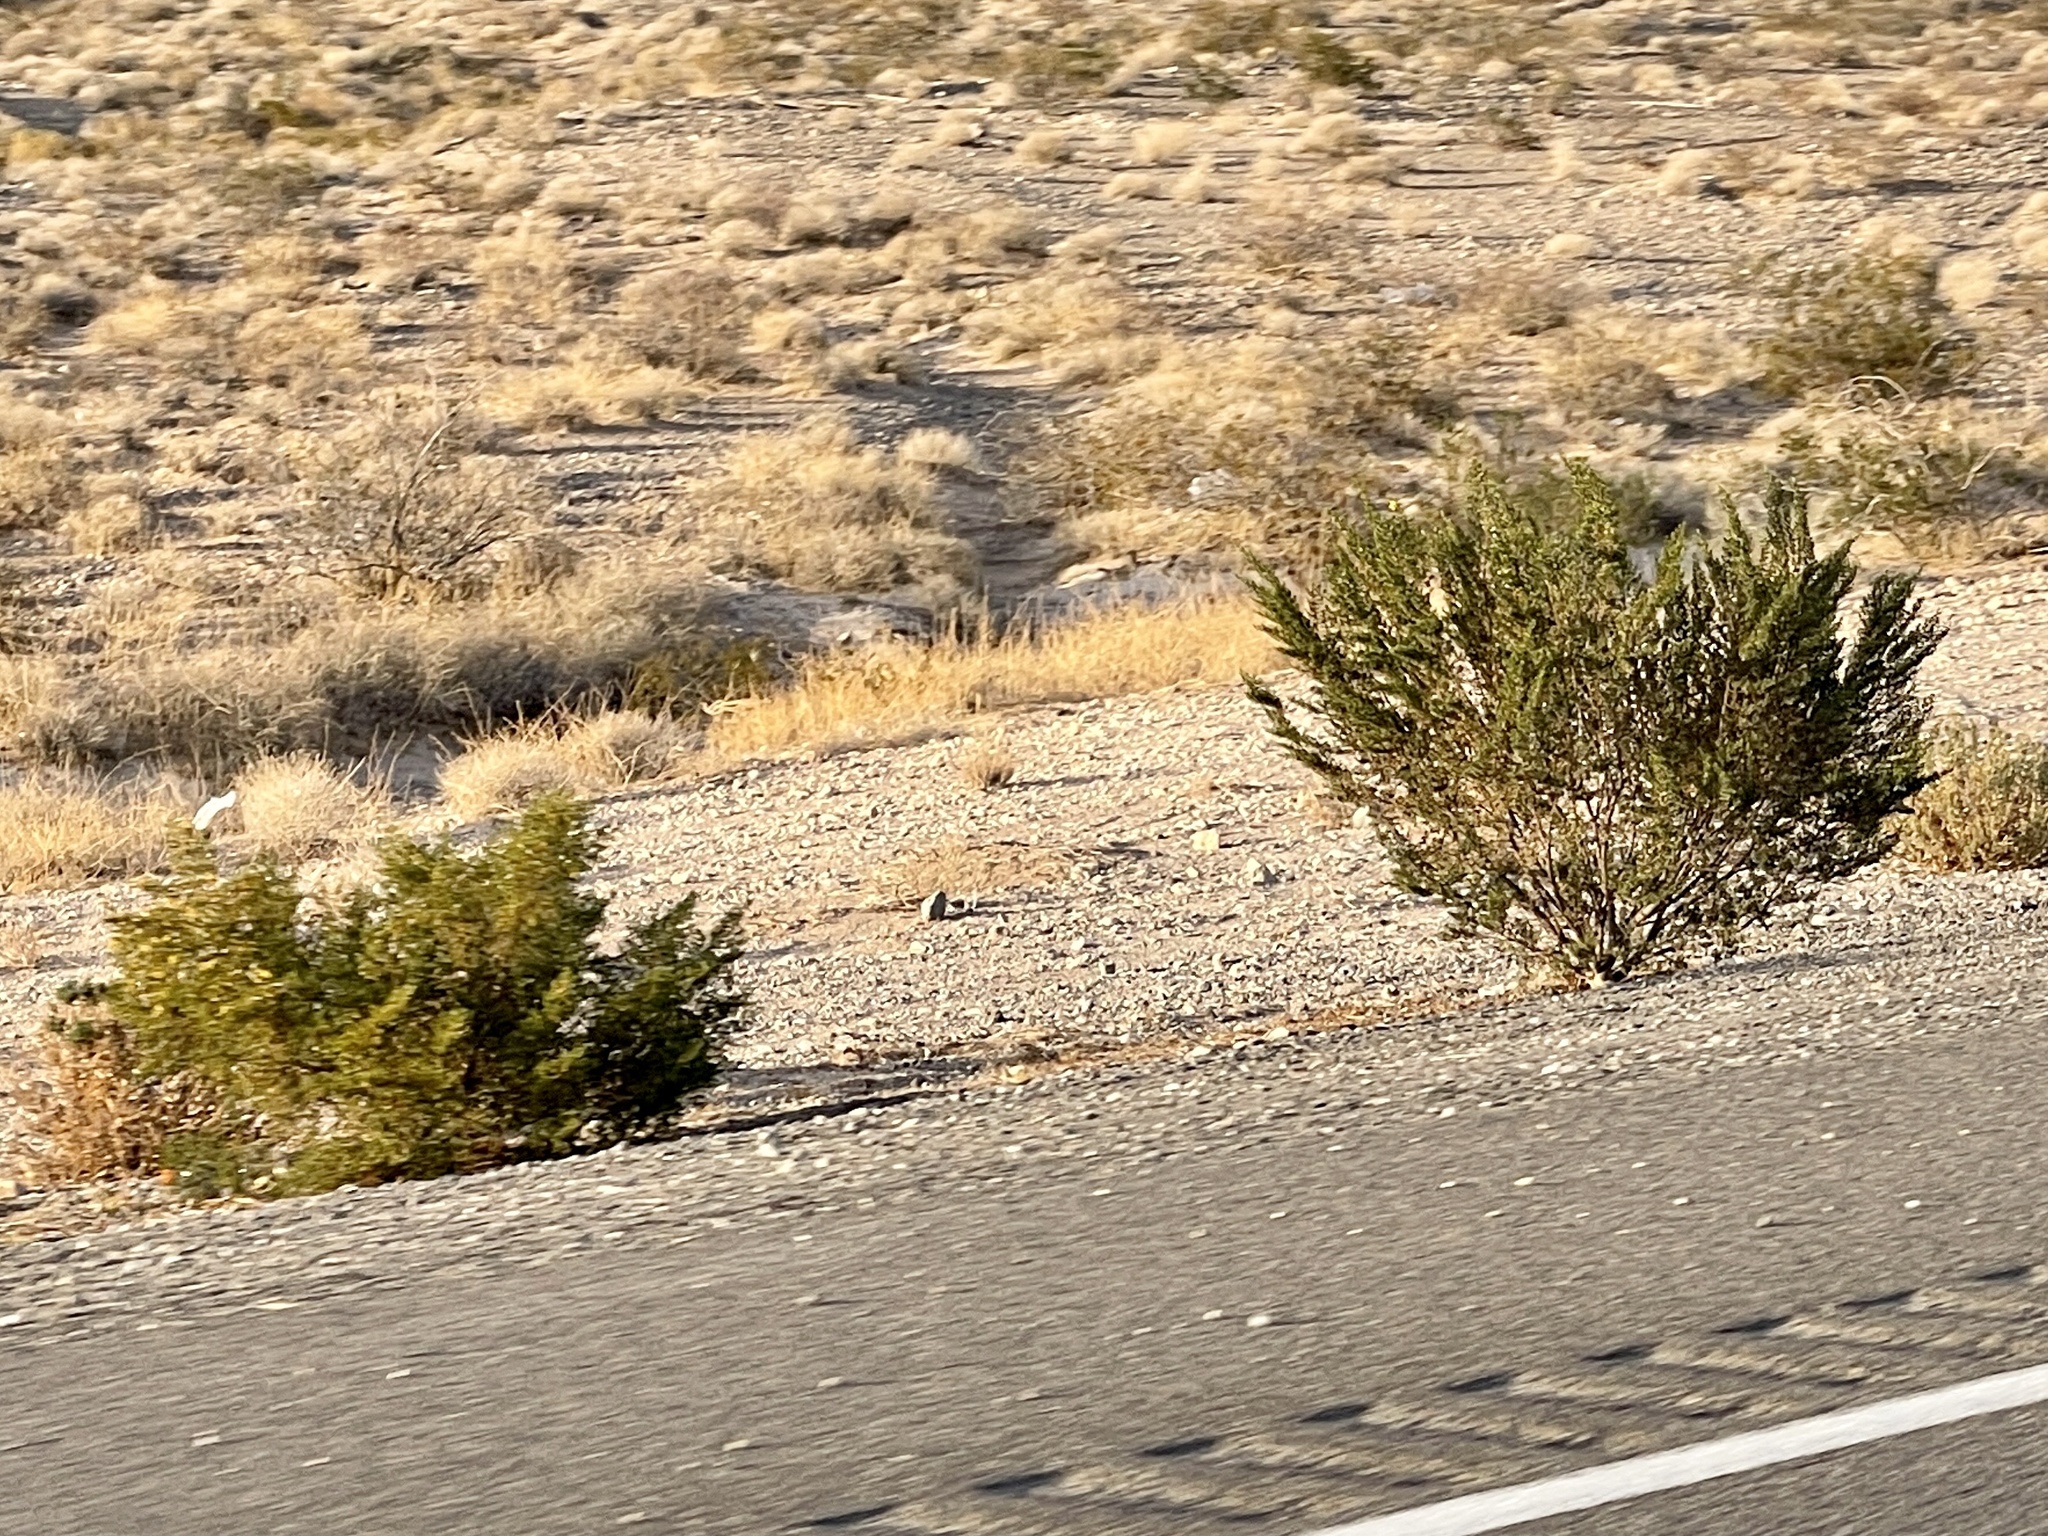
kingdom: Plantae
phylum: Tracheophyta
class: Magnoliopsida
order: Zygophyllales
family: Zygophyllaceae
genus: Larrea
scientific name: Larrea tridentata
